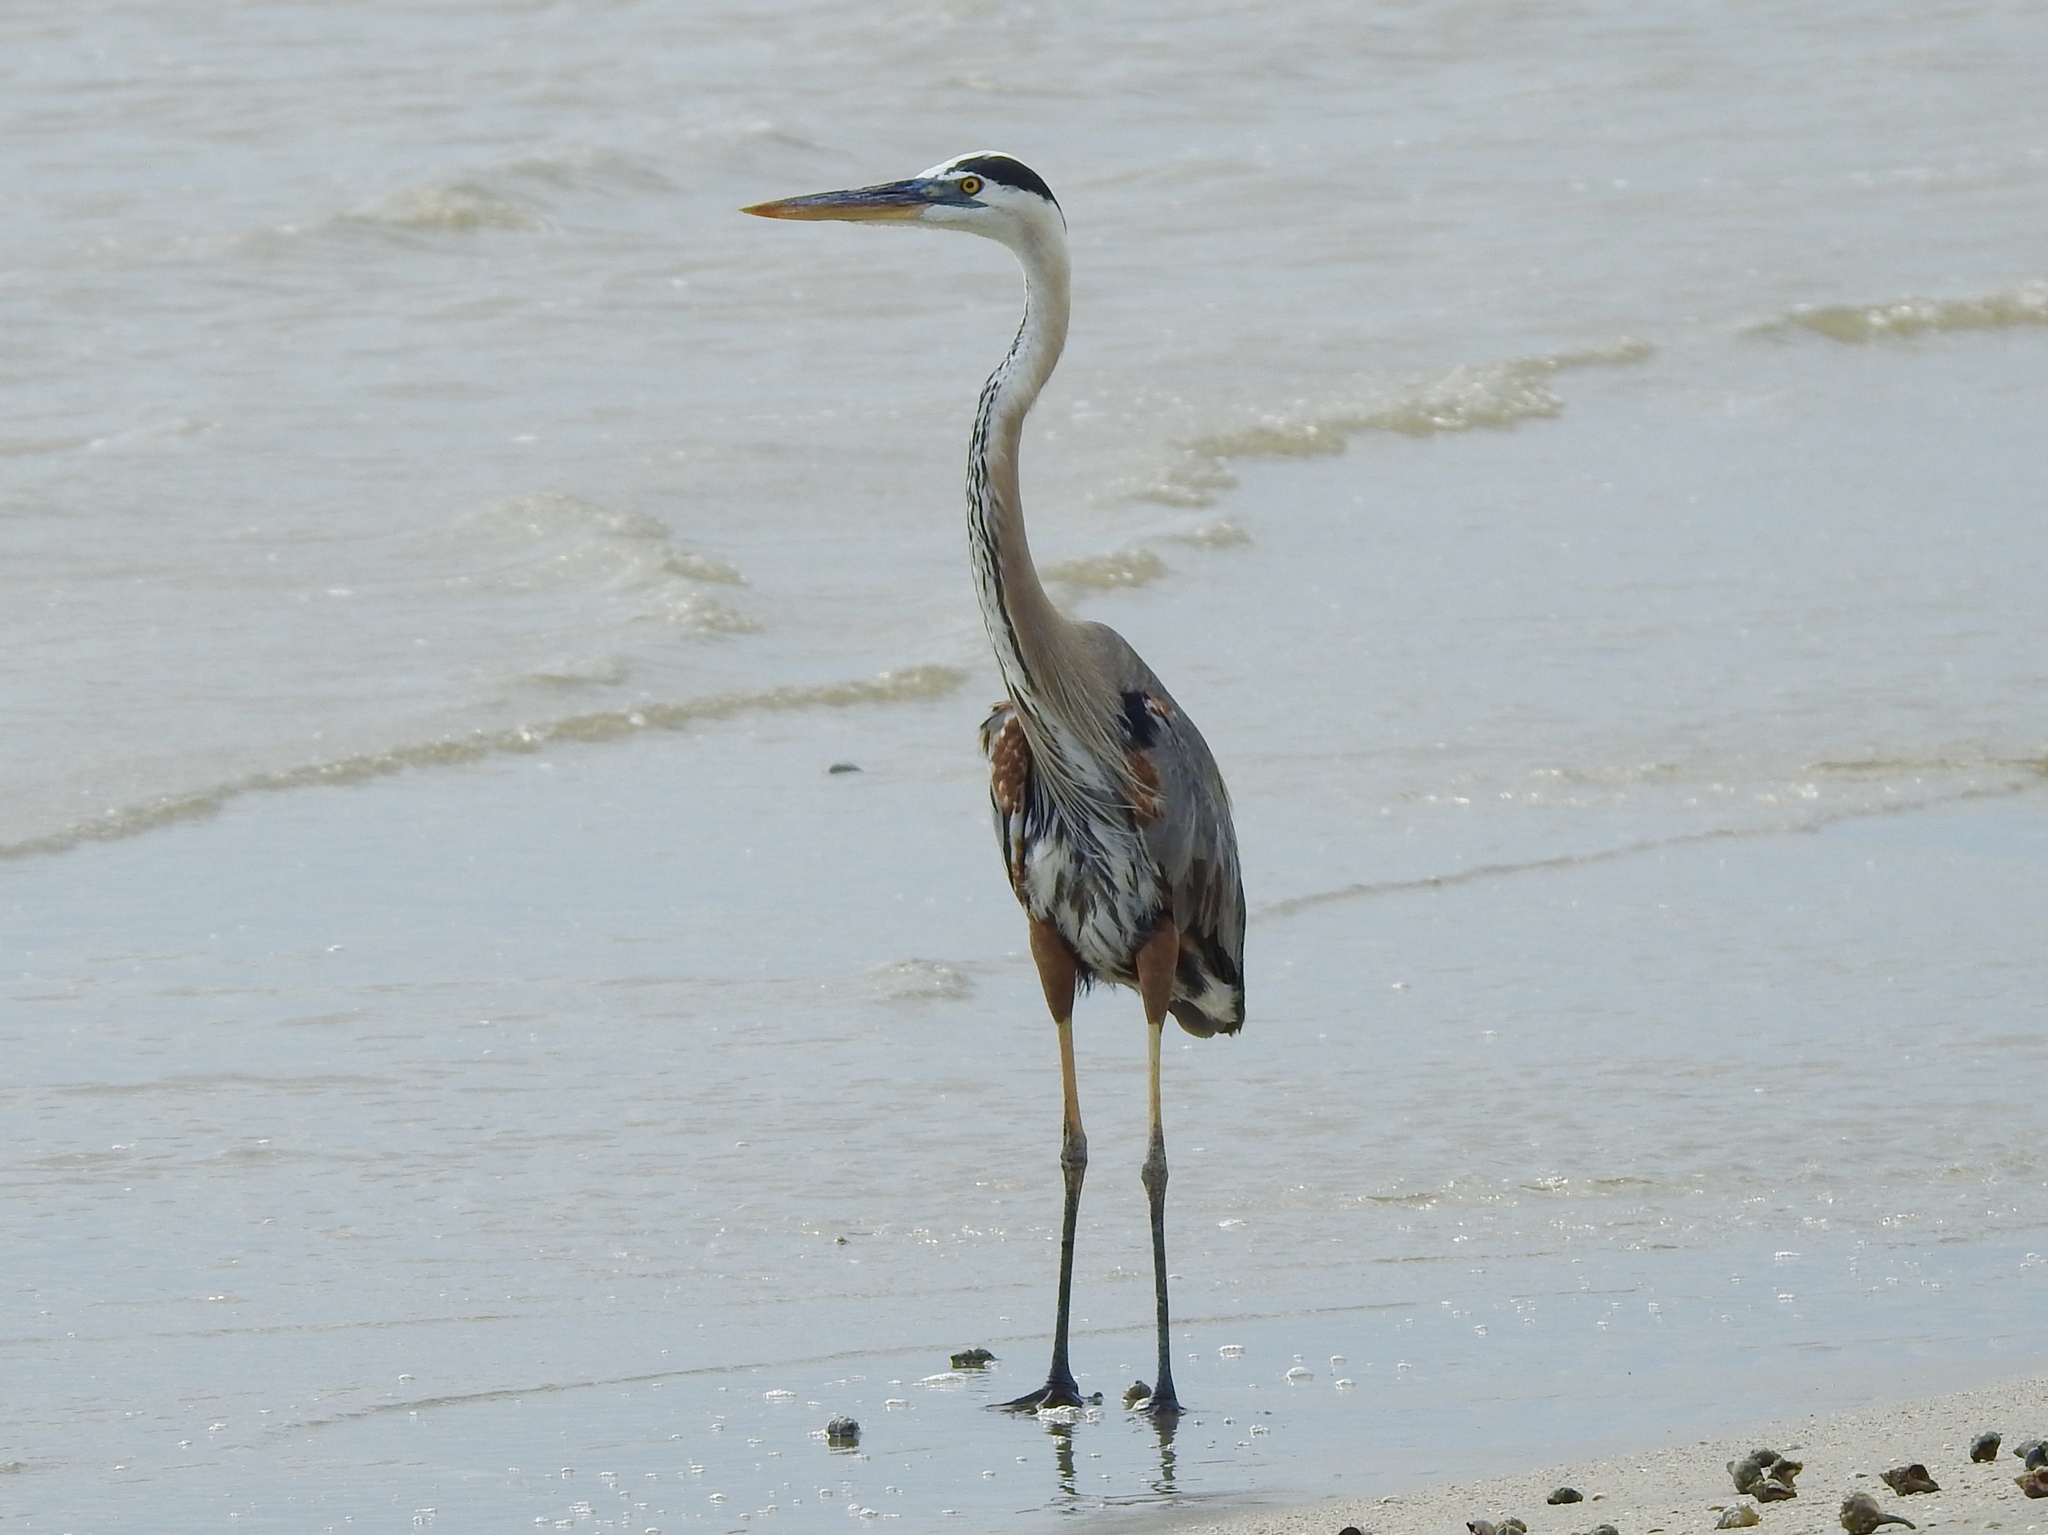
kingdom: Animalia
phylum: Chordata
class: Aves
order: Pelecaniformes
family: Ardeidae
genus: Ardea
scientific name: Ardea herodias
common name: Great blue heron
